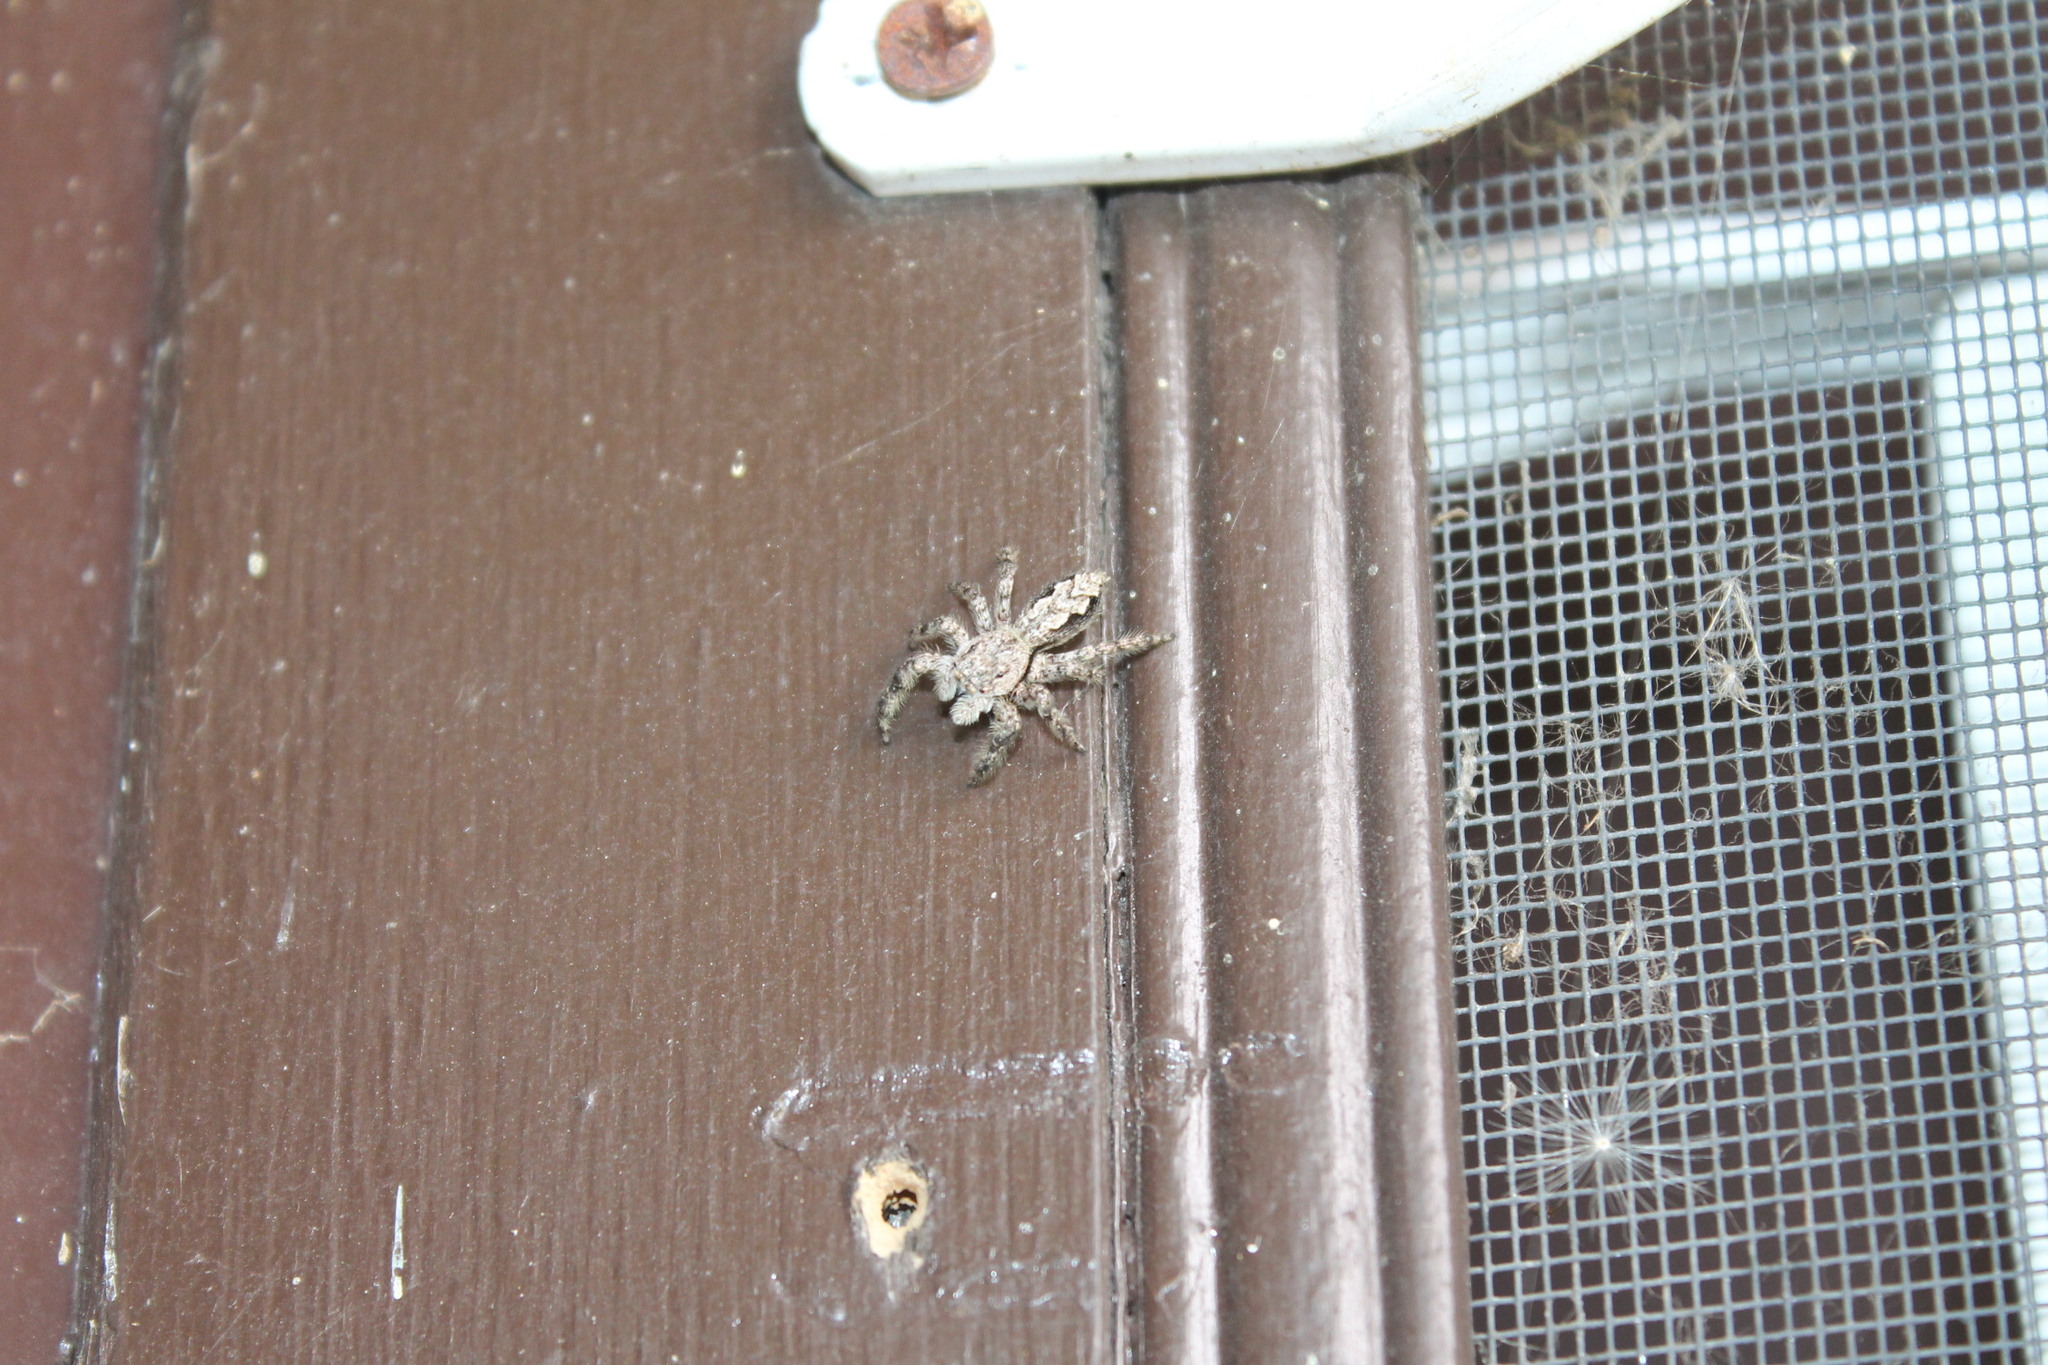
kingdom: Animalia
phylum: Arthropoda
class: Arachnida
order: Araneae
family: Salticidae
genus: Platycryptus
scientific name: Platycryptus undatus
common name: Tan jumping spider
